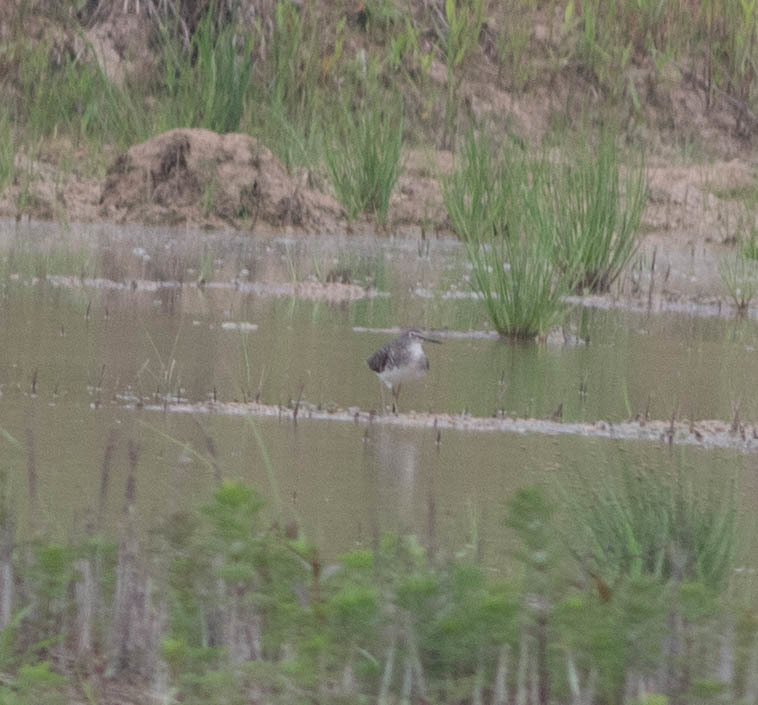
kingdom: Animalia
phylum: Chordata
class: Aves
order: Charadriiformes
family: Scolopacidae
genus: Tringa
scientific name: Tringa solitaria
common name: Solitary sandpiper
